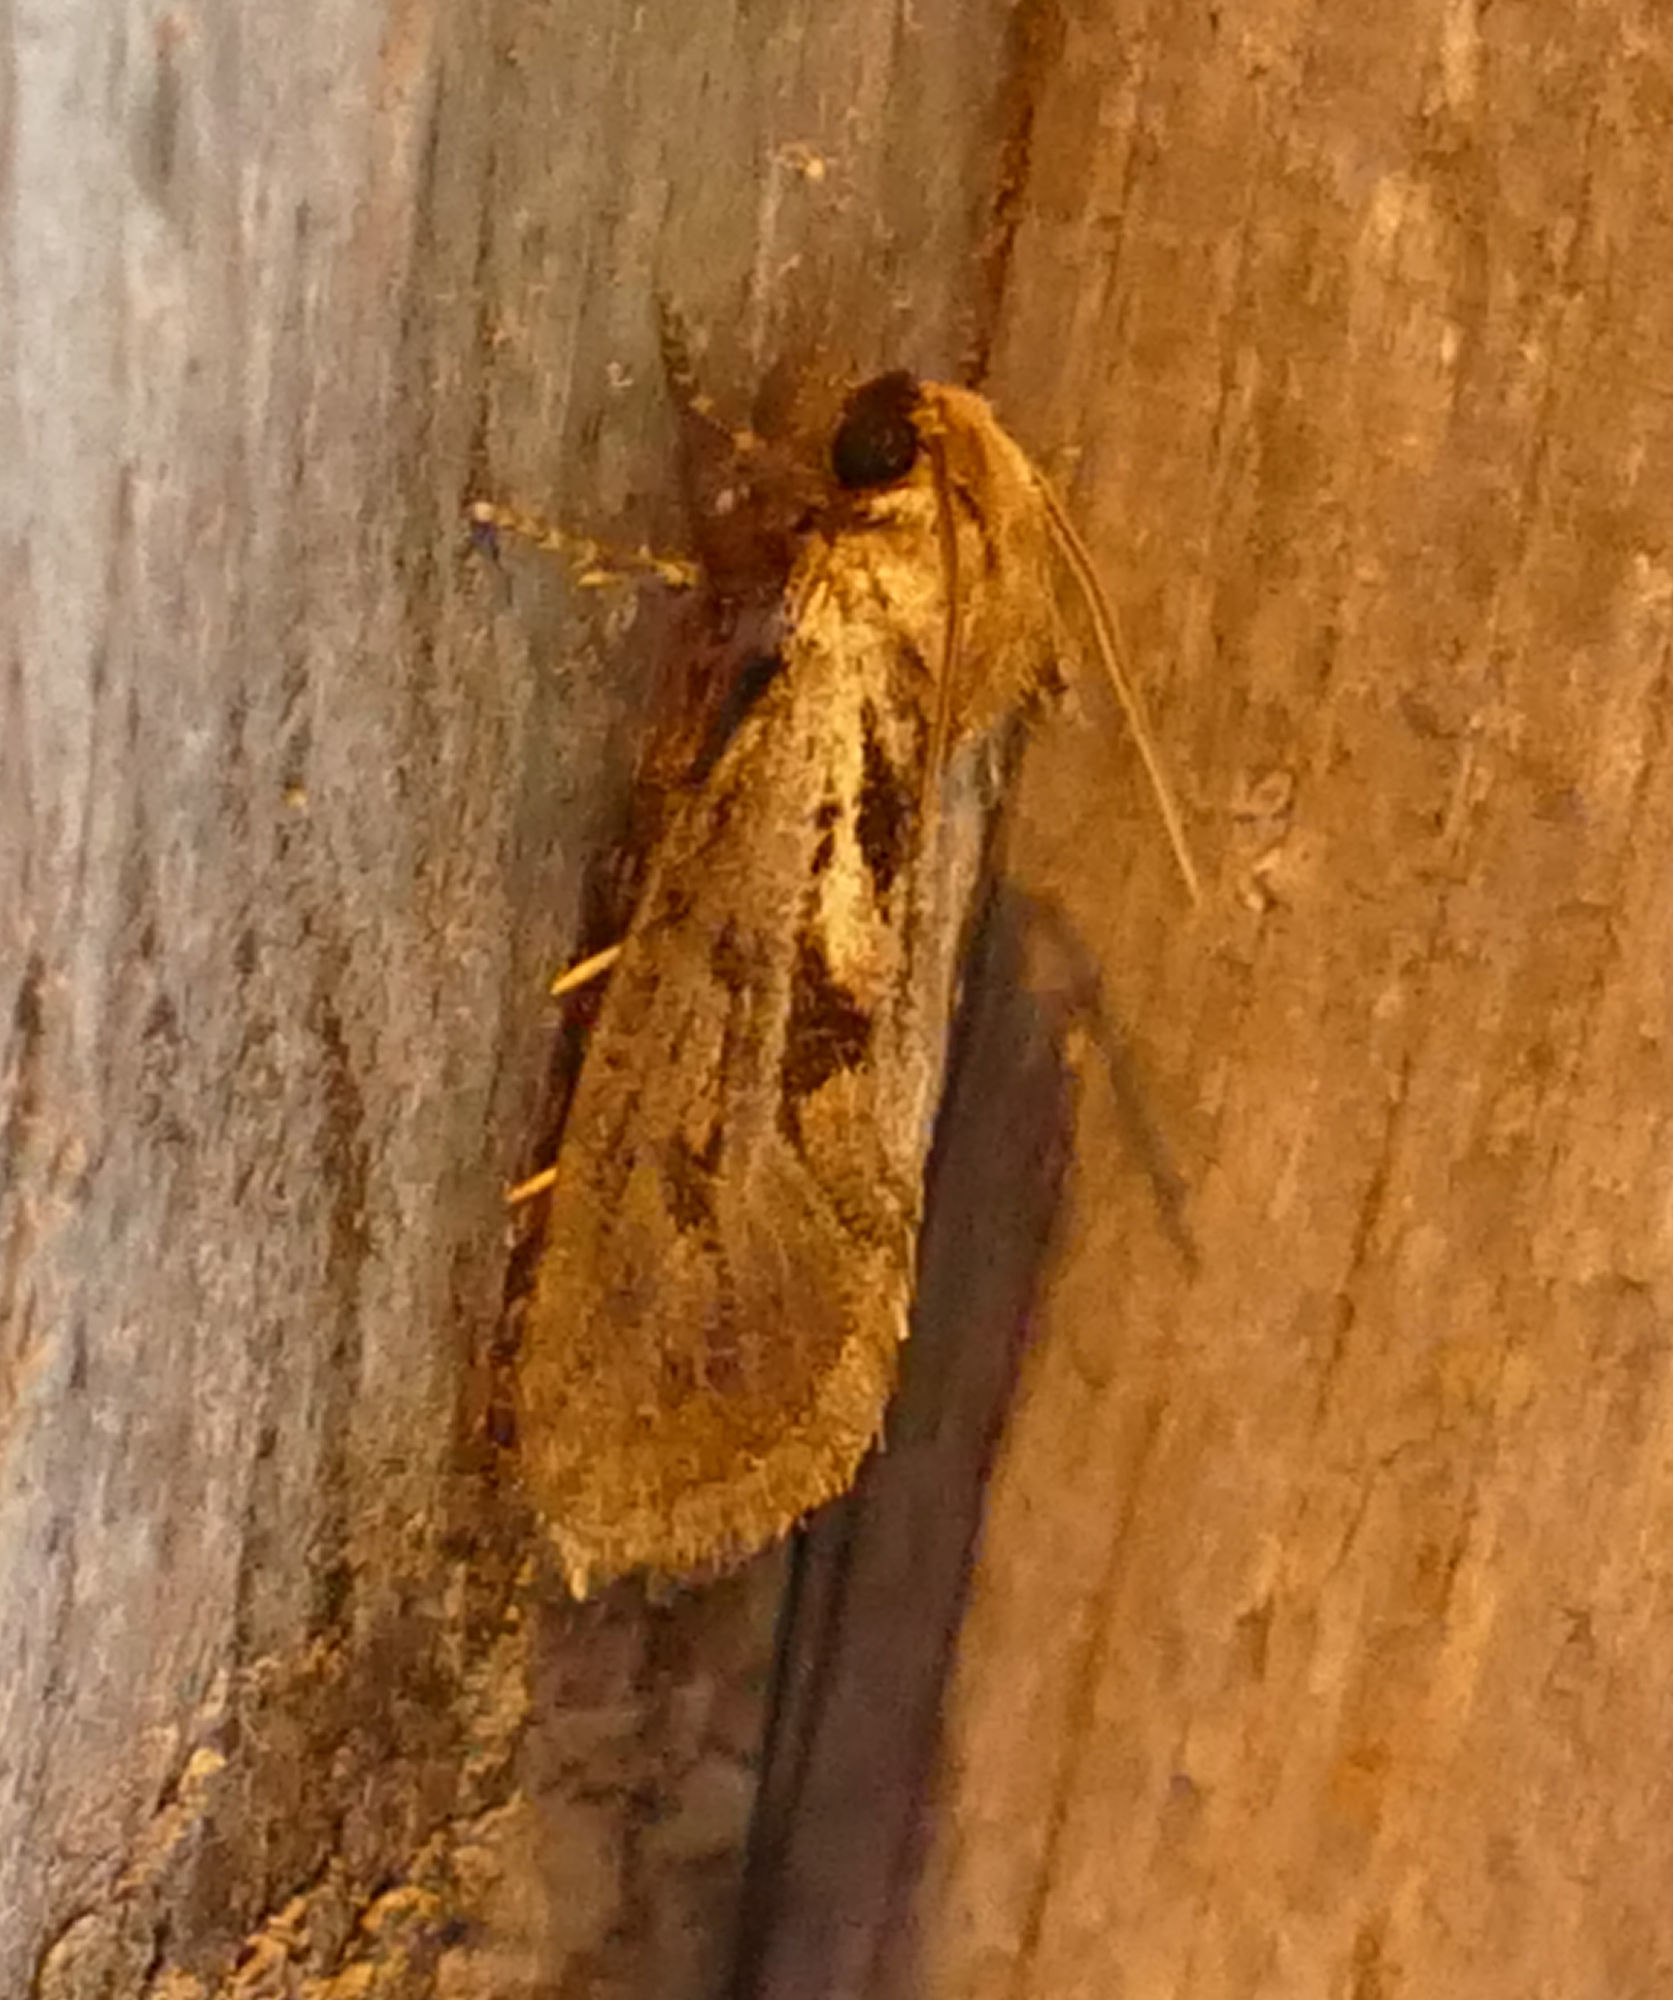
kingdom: Animalia
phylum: Arthropoda
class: Insecta
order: Lepidoptera
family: Tineidae
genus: Acrolophus
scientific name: Acrolophus popeanella
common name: Clemens' grass tubeworm moth
